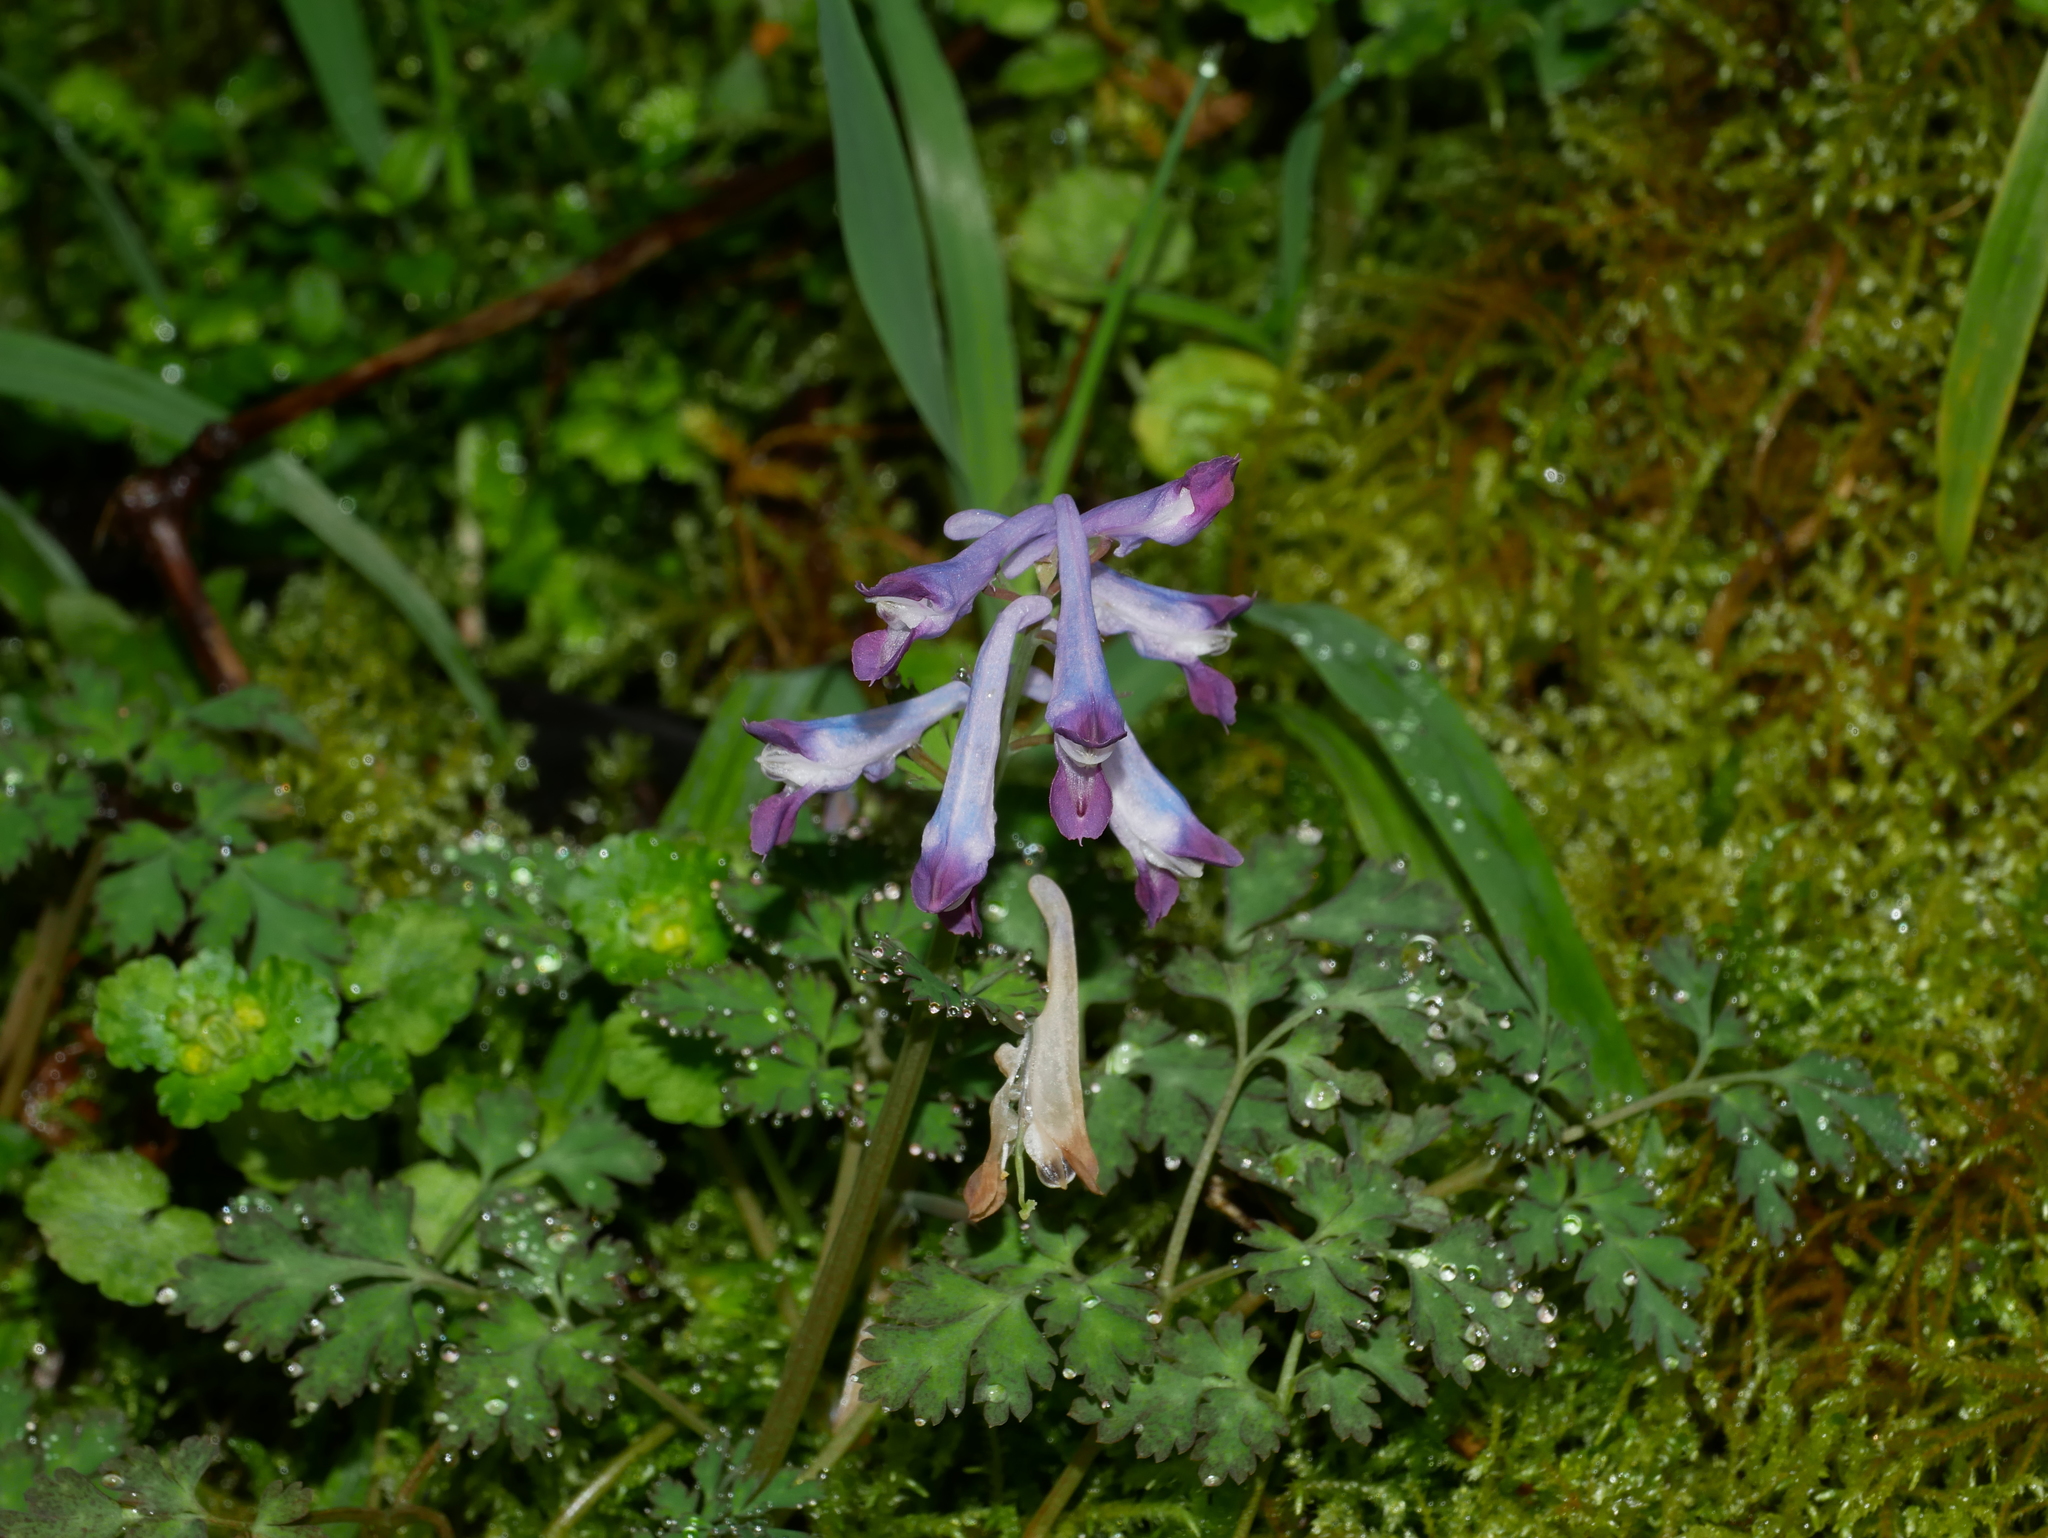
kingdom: Plantae
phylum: Tracheophyta
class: Magnoliopsida
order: Ranunculales
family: Papaveraceae
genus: Corydalis
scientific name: Corydalis incisa
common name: Incised fumewort
